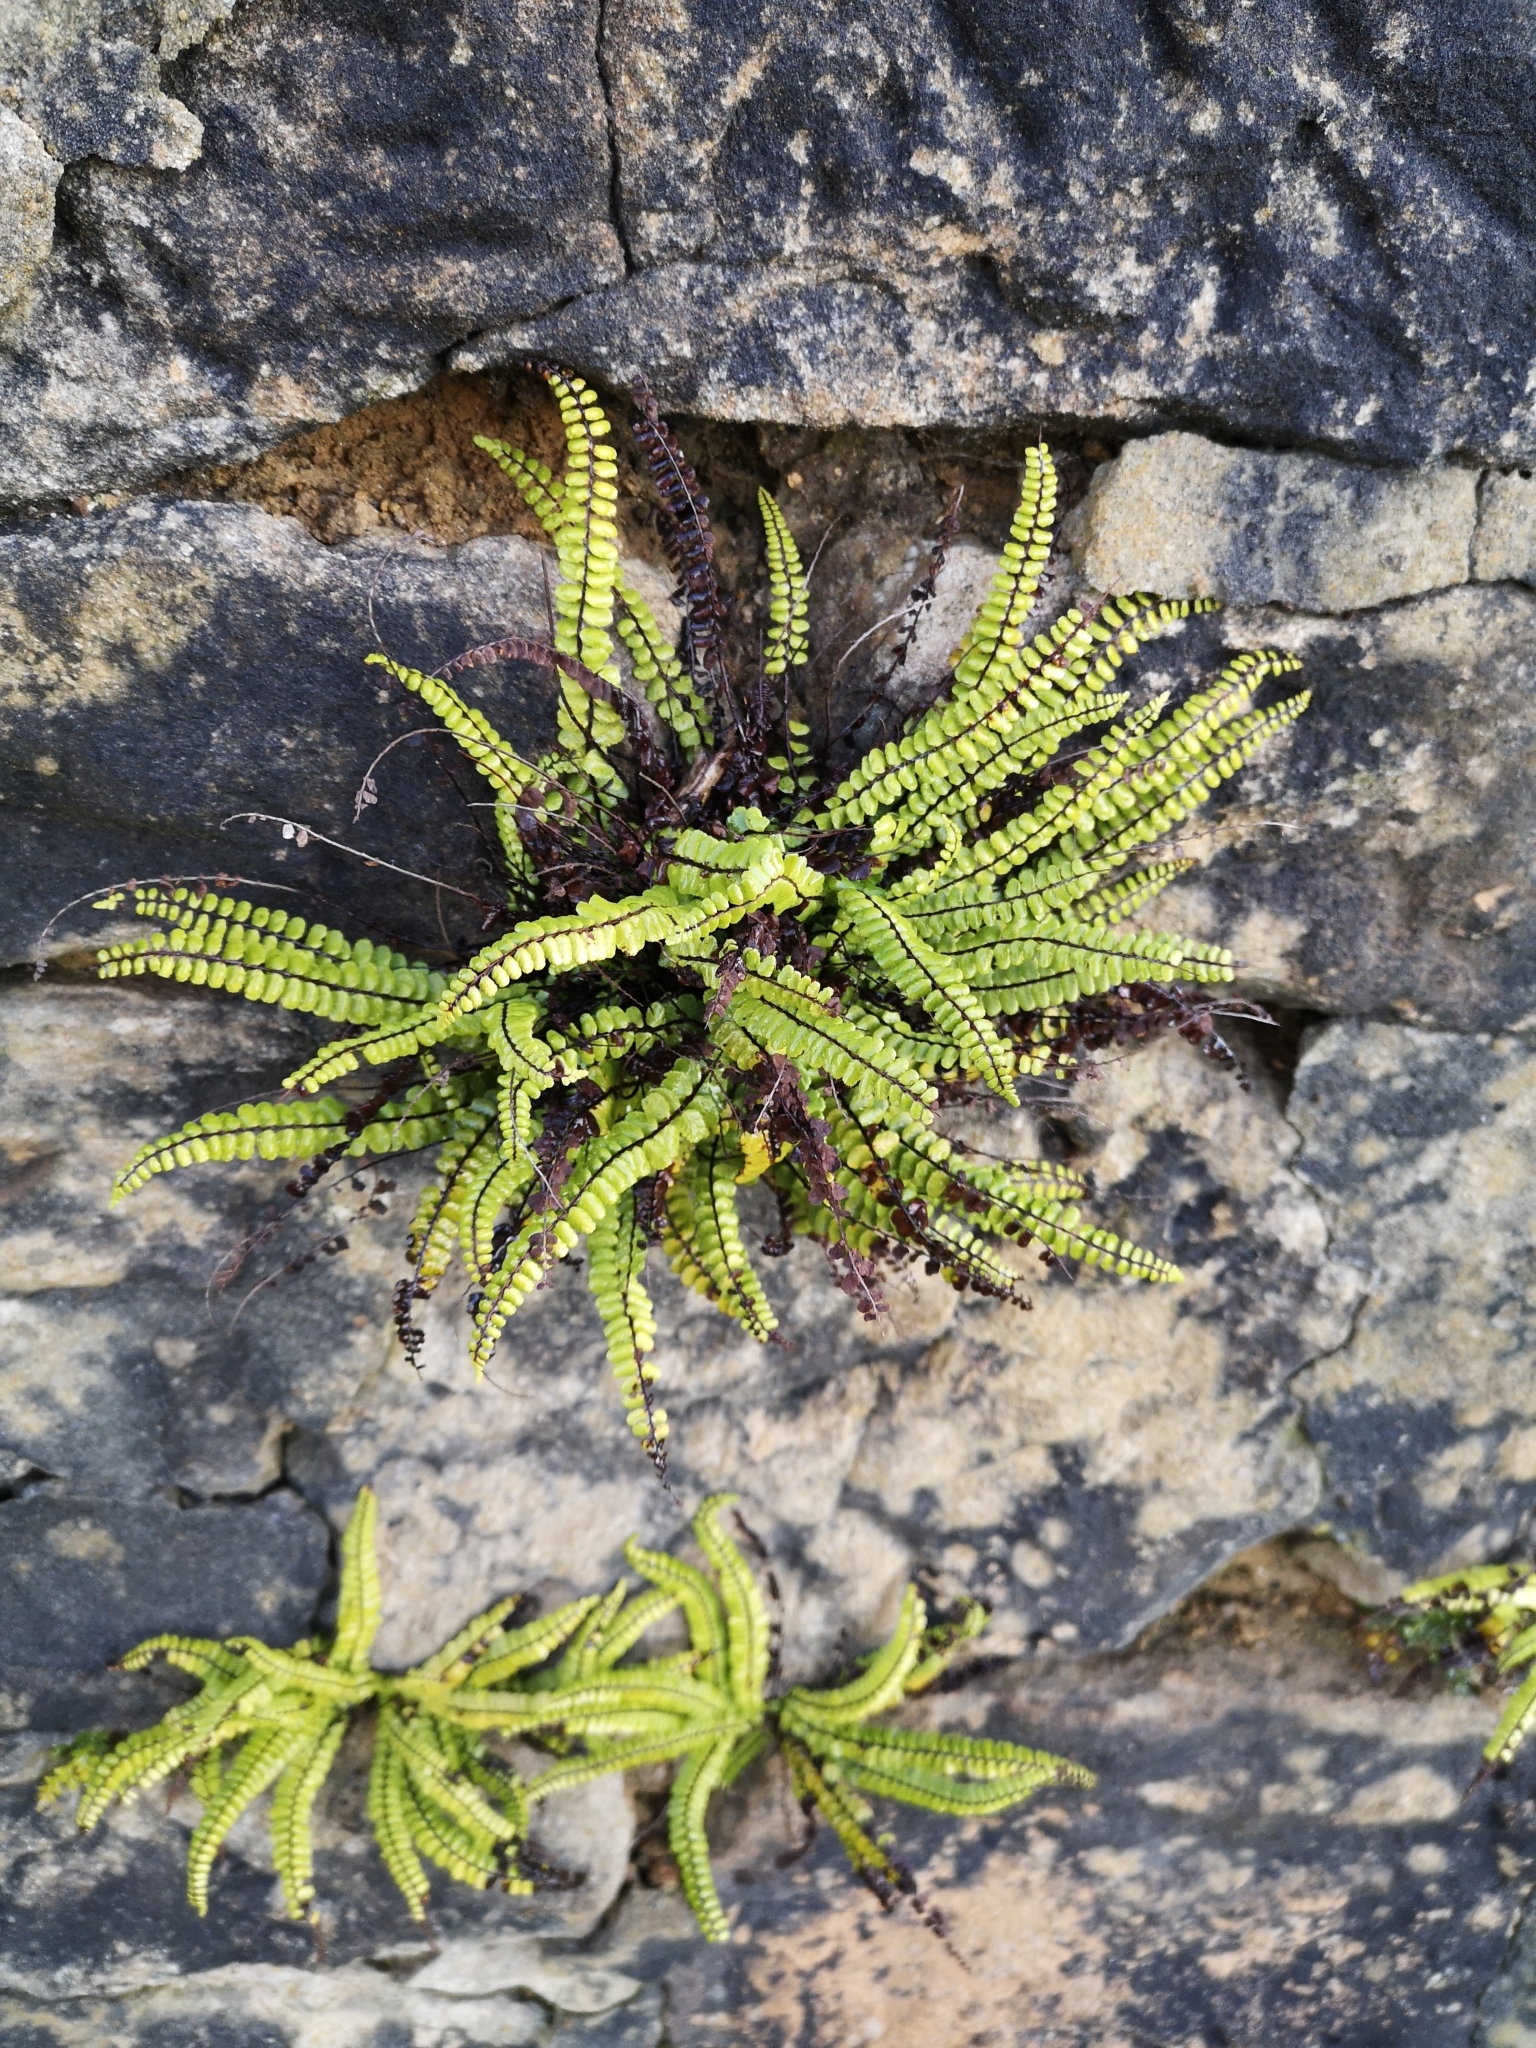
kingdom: Plantae
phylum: Tracheophyta
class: Polypodiopsida
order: Polypodiales
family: Aspleniaceae
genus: Asplenium
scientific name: Asplenium trichomanes
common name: Maidenhair spleenwort
